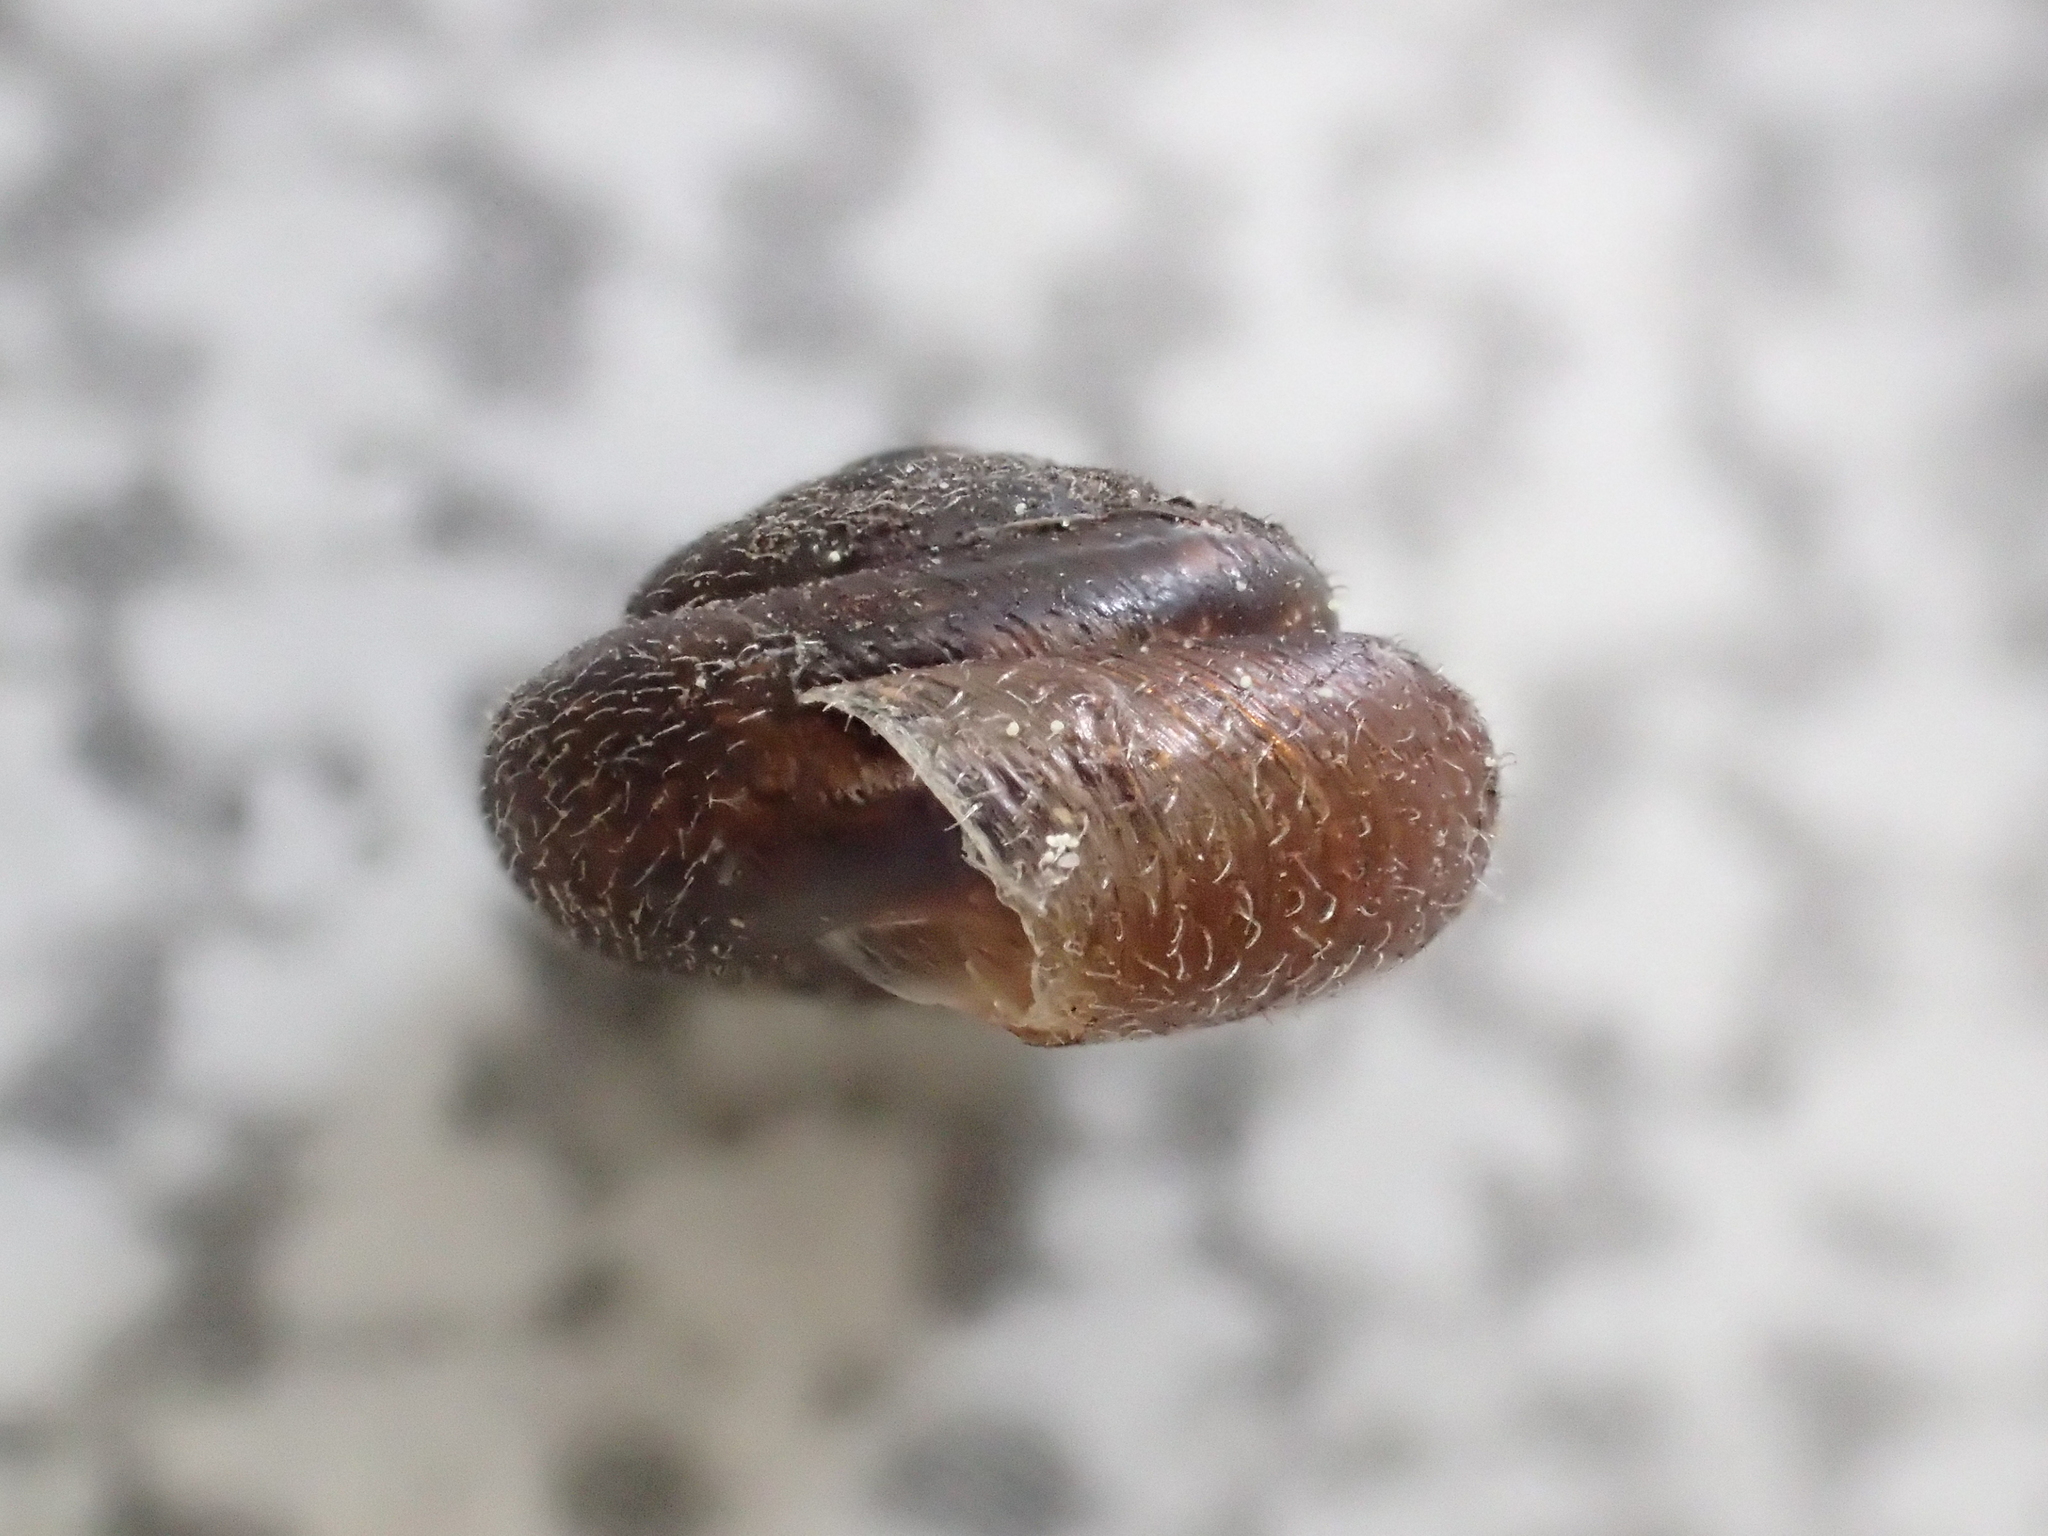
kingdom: Animalia
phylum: Mollusca
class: Gastropoda
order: Stylommatophora
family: Hygromiidae
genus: Trochulus
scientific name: Trochulus hispidus
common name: Hairy snail
